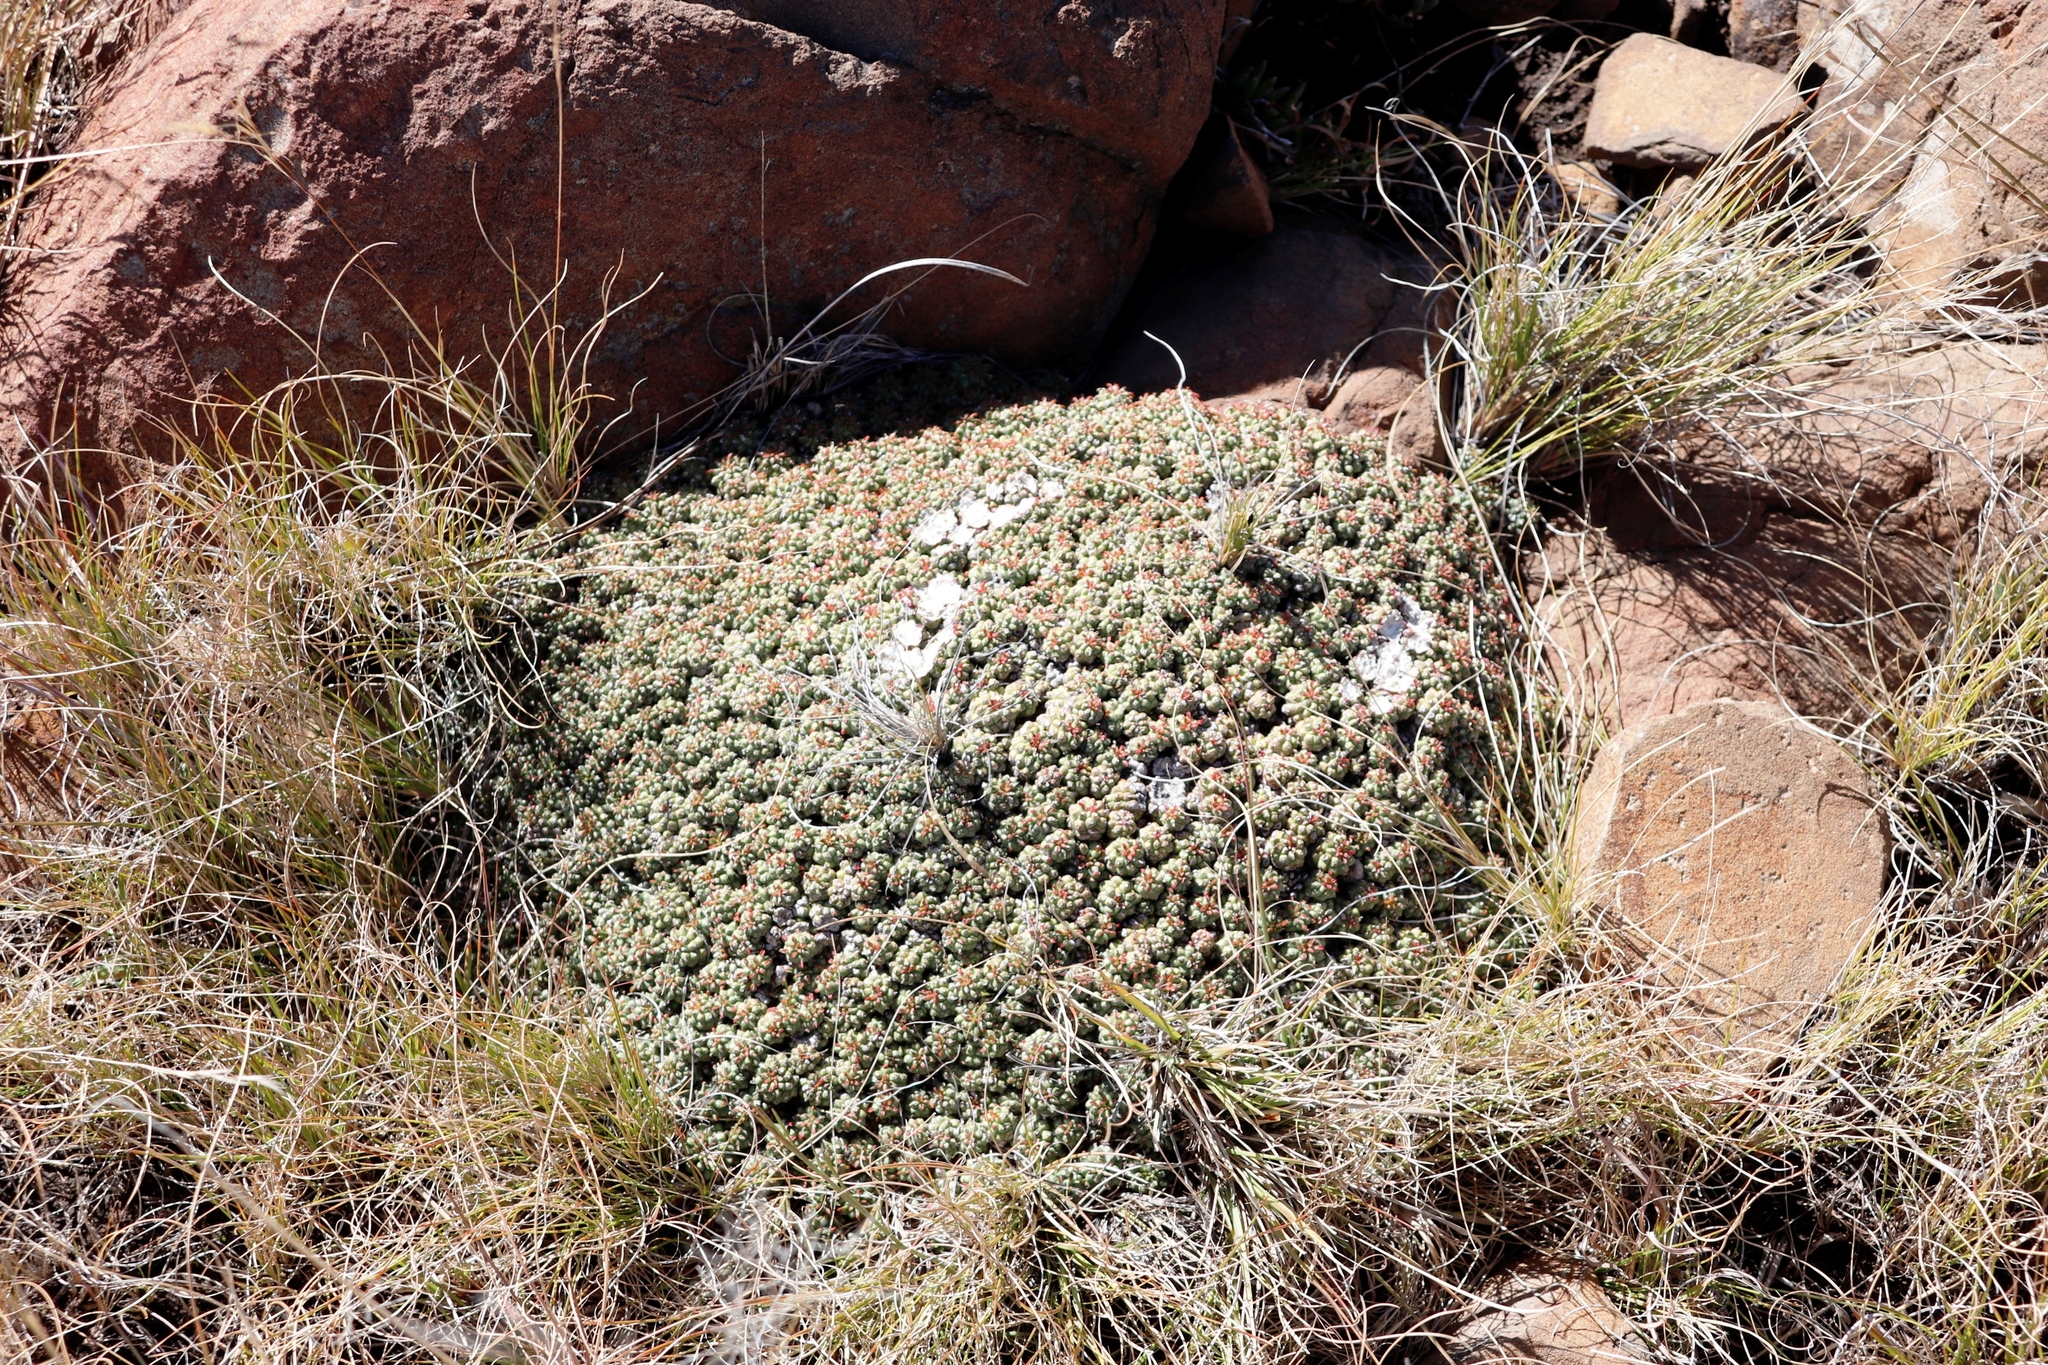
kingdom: Plantae
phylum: Tracheophyta
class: Magnoliopsida
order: Malpighiales
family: Euphorbiaceae
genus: Euphorbia
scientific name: Euphorbia clavarioides
